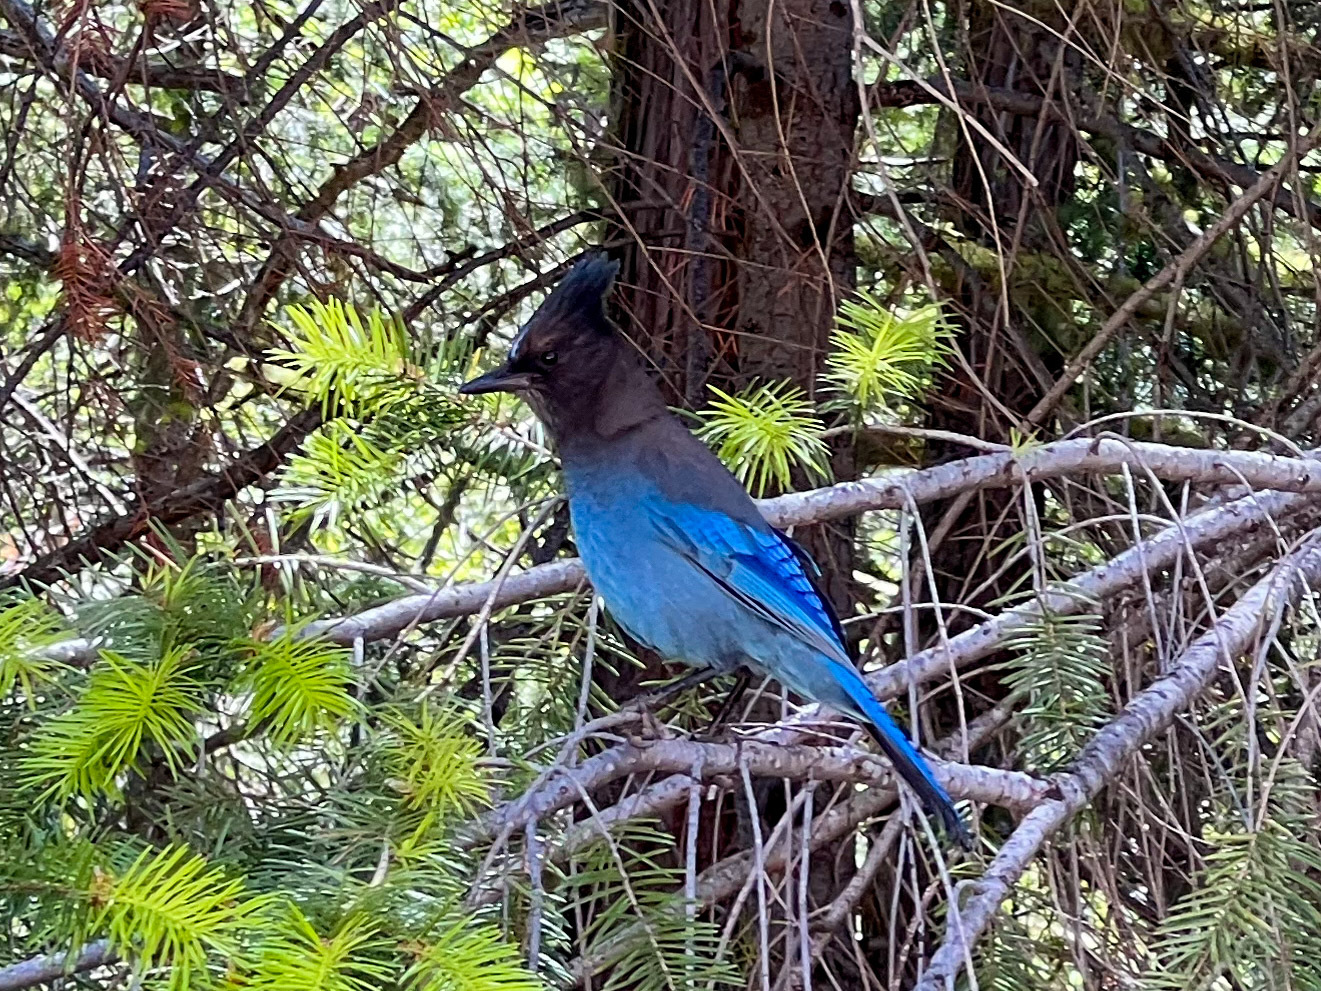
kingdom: Animalia
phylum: Chordata
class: Aves
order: Passeriformes
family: Corvidae
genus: Cyanocitta
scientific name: Cyanocitta stelleri
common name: Steller's jay
